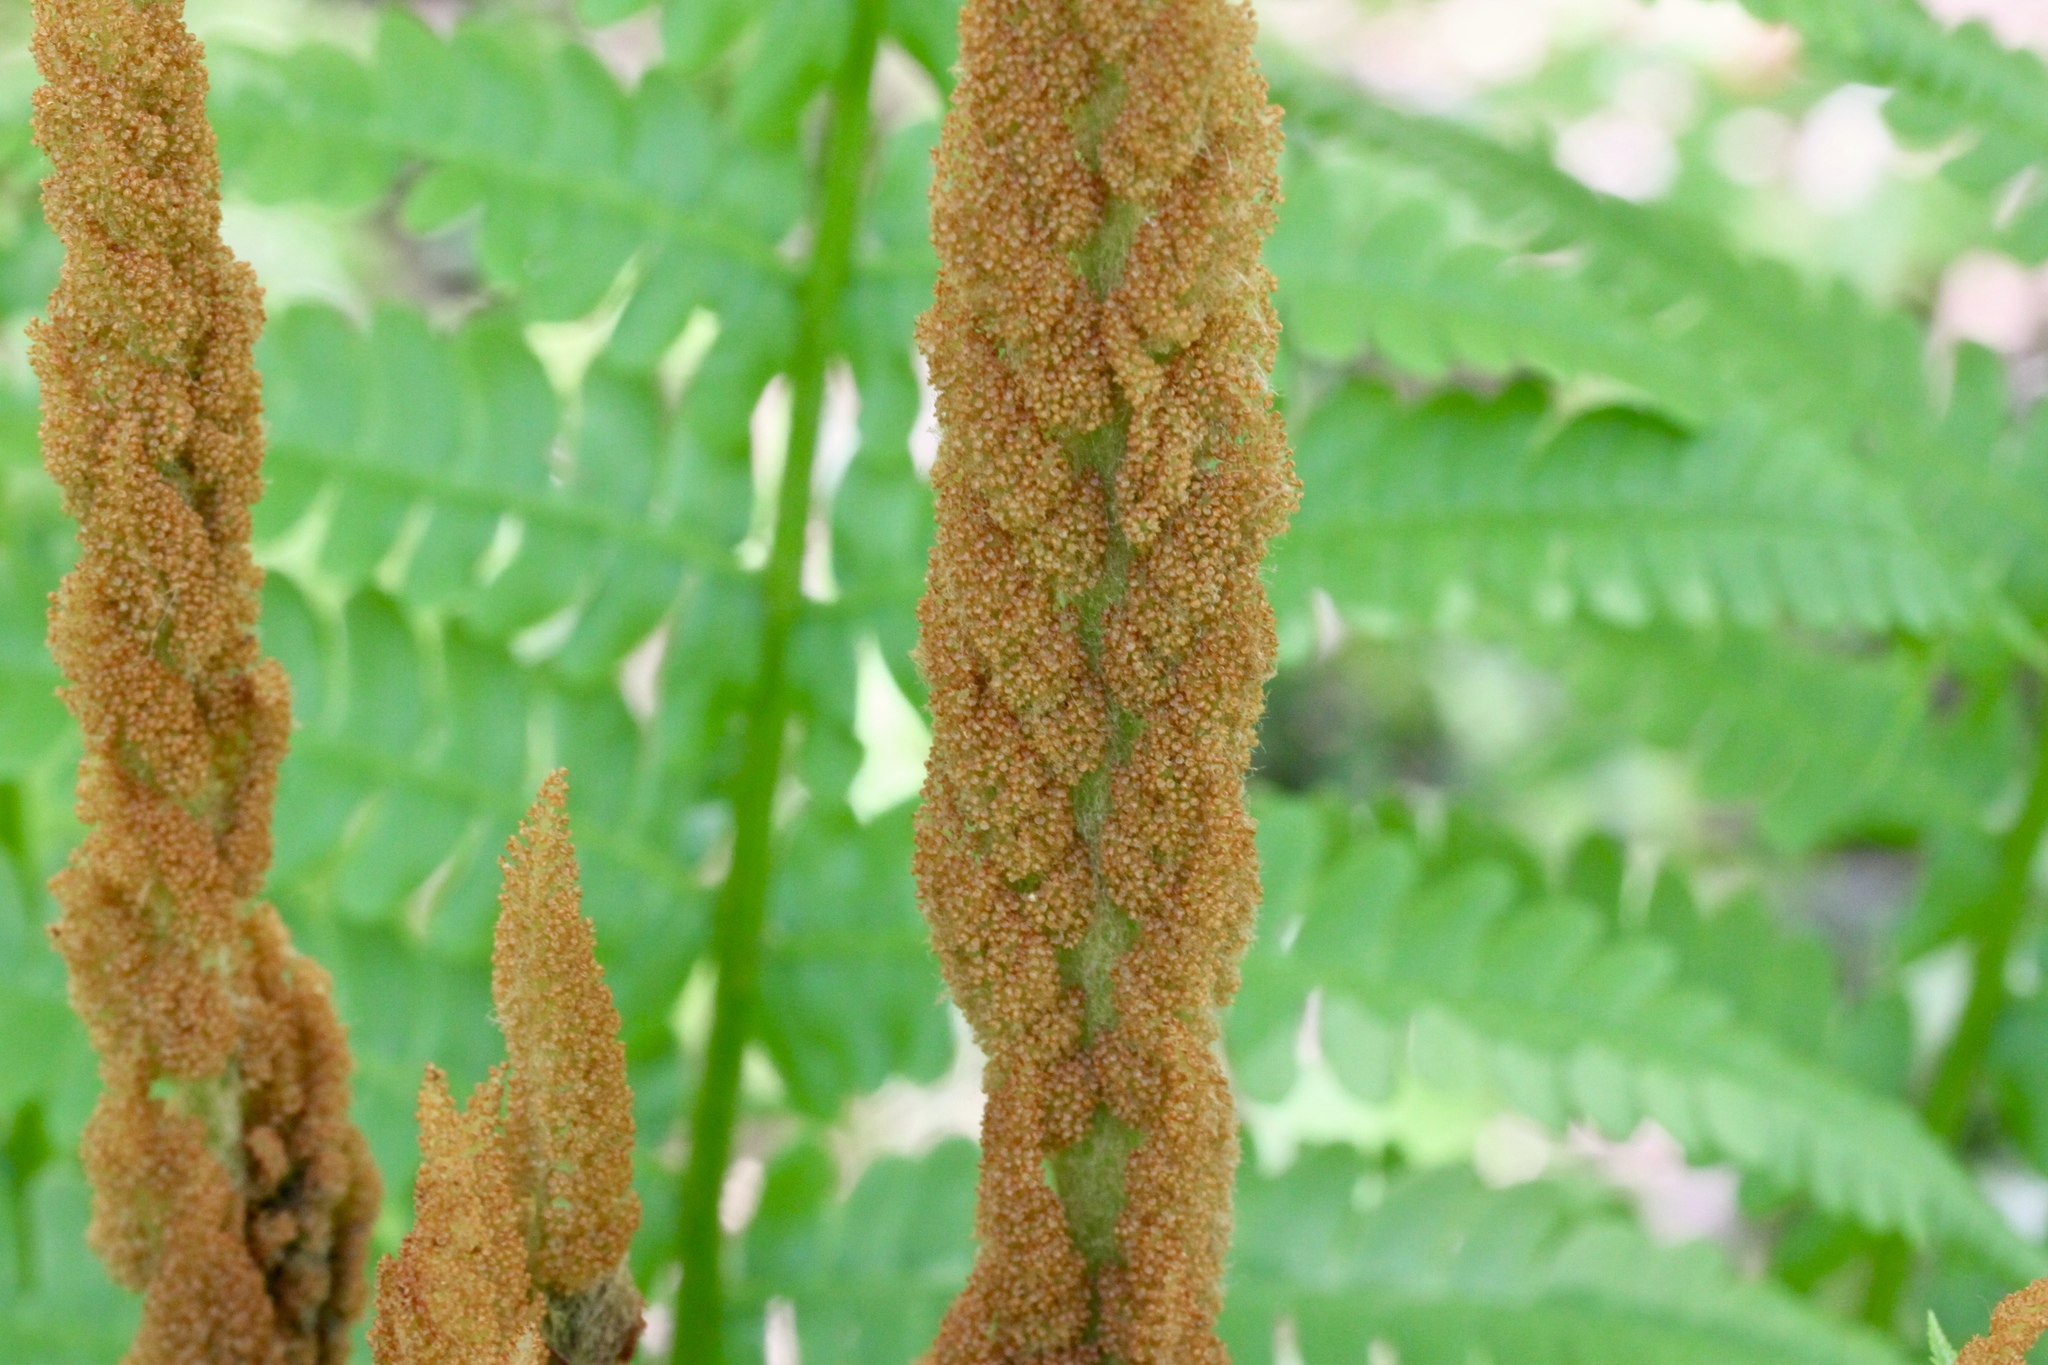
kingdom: Plantae
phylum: Tracheophyta
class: Polypodiopsida
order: Osmundales
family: Osmundaceae
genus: Osmundastrum
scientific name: Osmundastrum cinnamomeum
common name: Cinnamon fern
